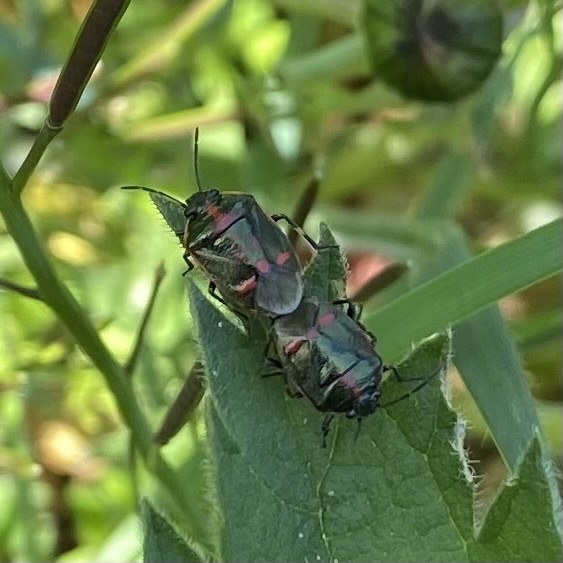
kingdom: Animalia
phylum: Arthropoda
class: Insecta
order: Hemiptera
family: Pentatomidae
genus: Eurydema
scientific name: Eurydema oleracea
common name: Cabbage bug
